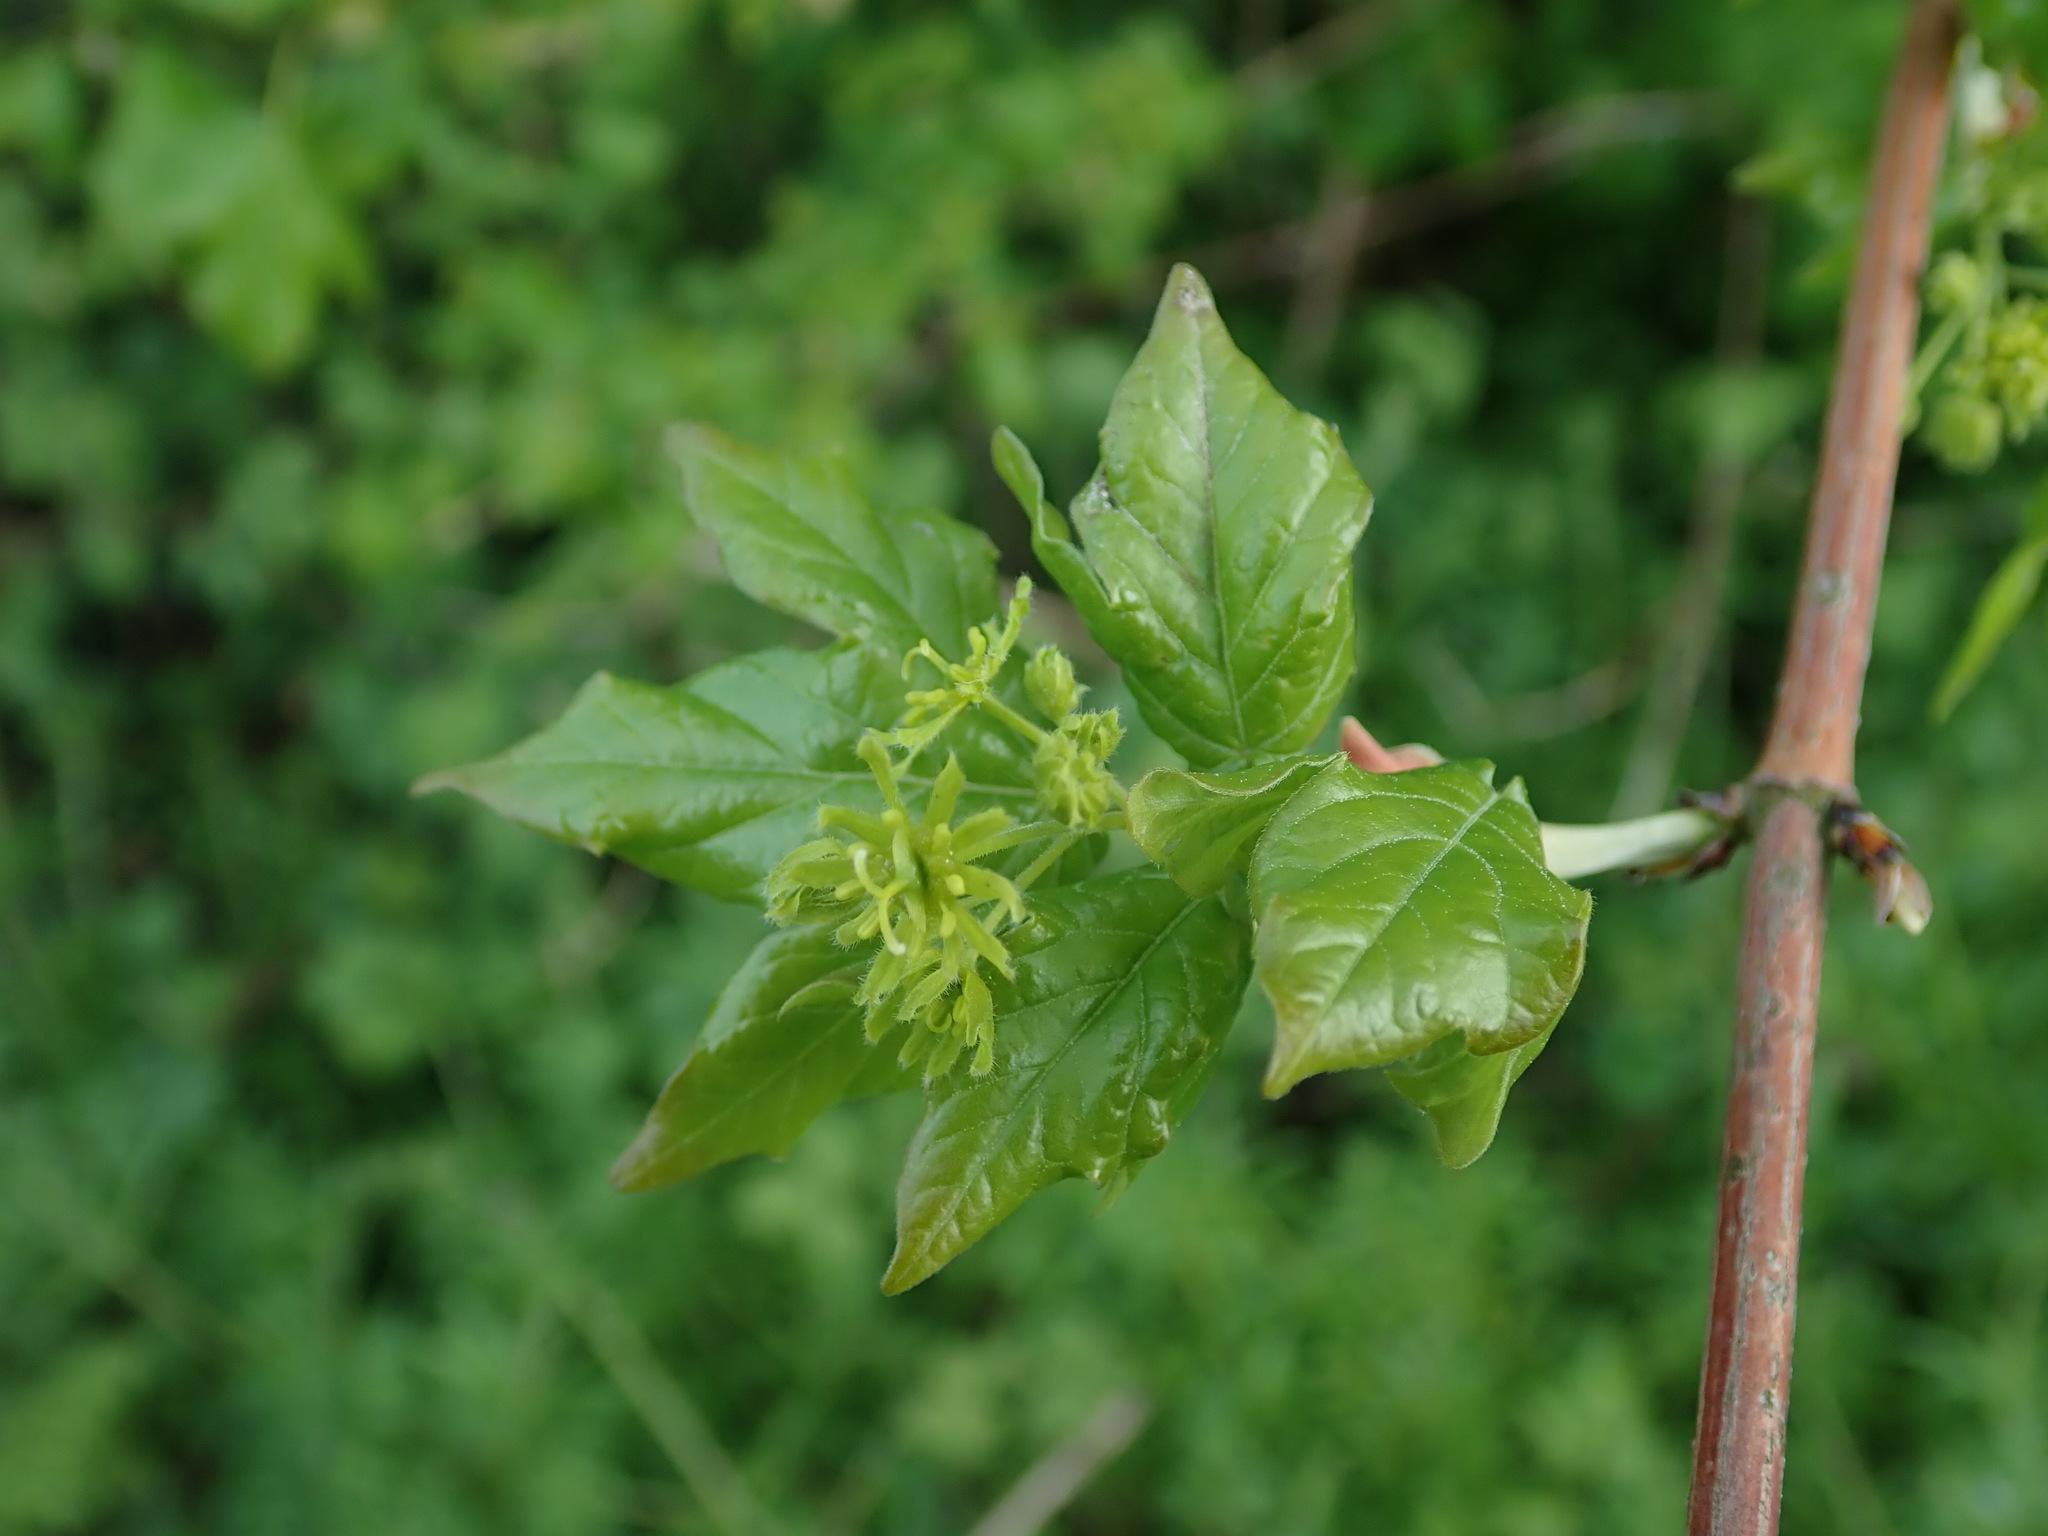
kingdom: Plantae
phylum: Tracheophyta
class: Magnoliopsida
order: Sapindales
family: Sapindaceae
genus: Acer
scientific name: Acer campestre
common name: Field maple
